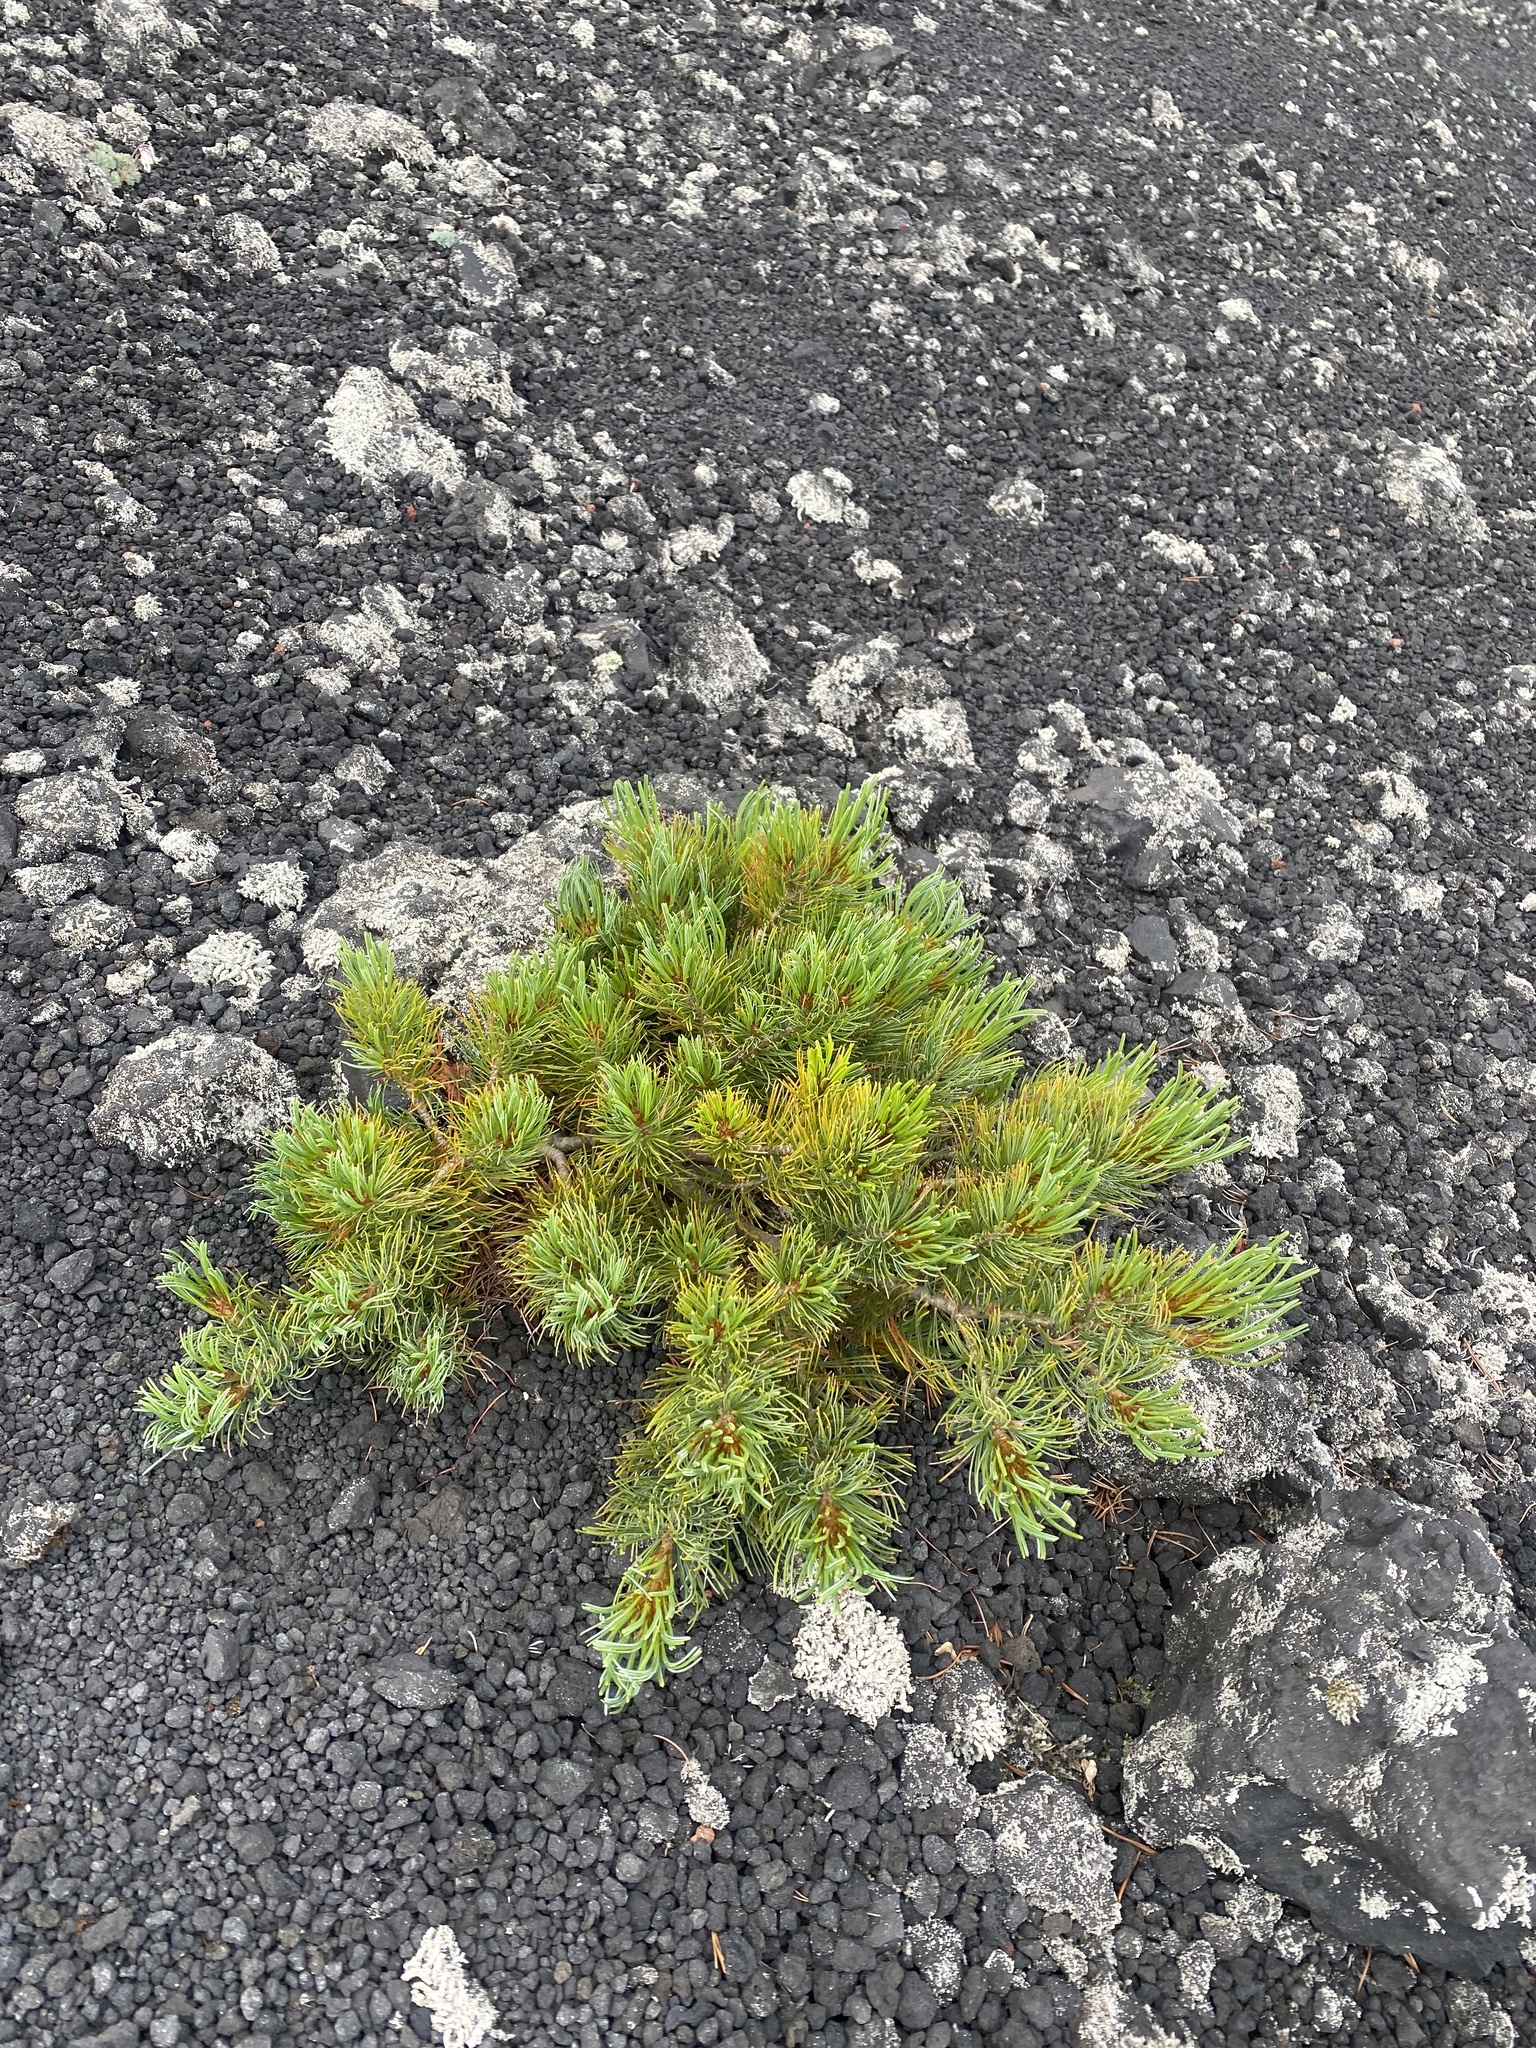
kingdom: Plantae
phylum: Tracheophyta
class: Pinopsida
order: Pinales
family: Pinaceae
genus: Pinus
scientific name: Pinus pumila
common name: Dwarf siberian pine
